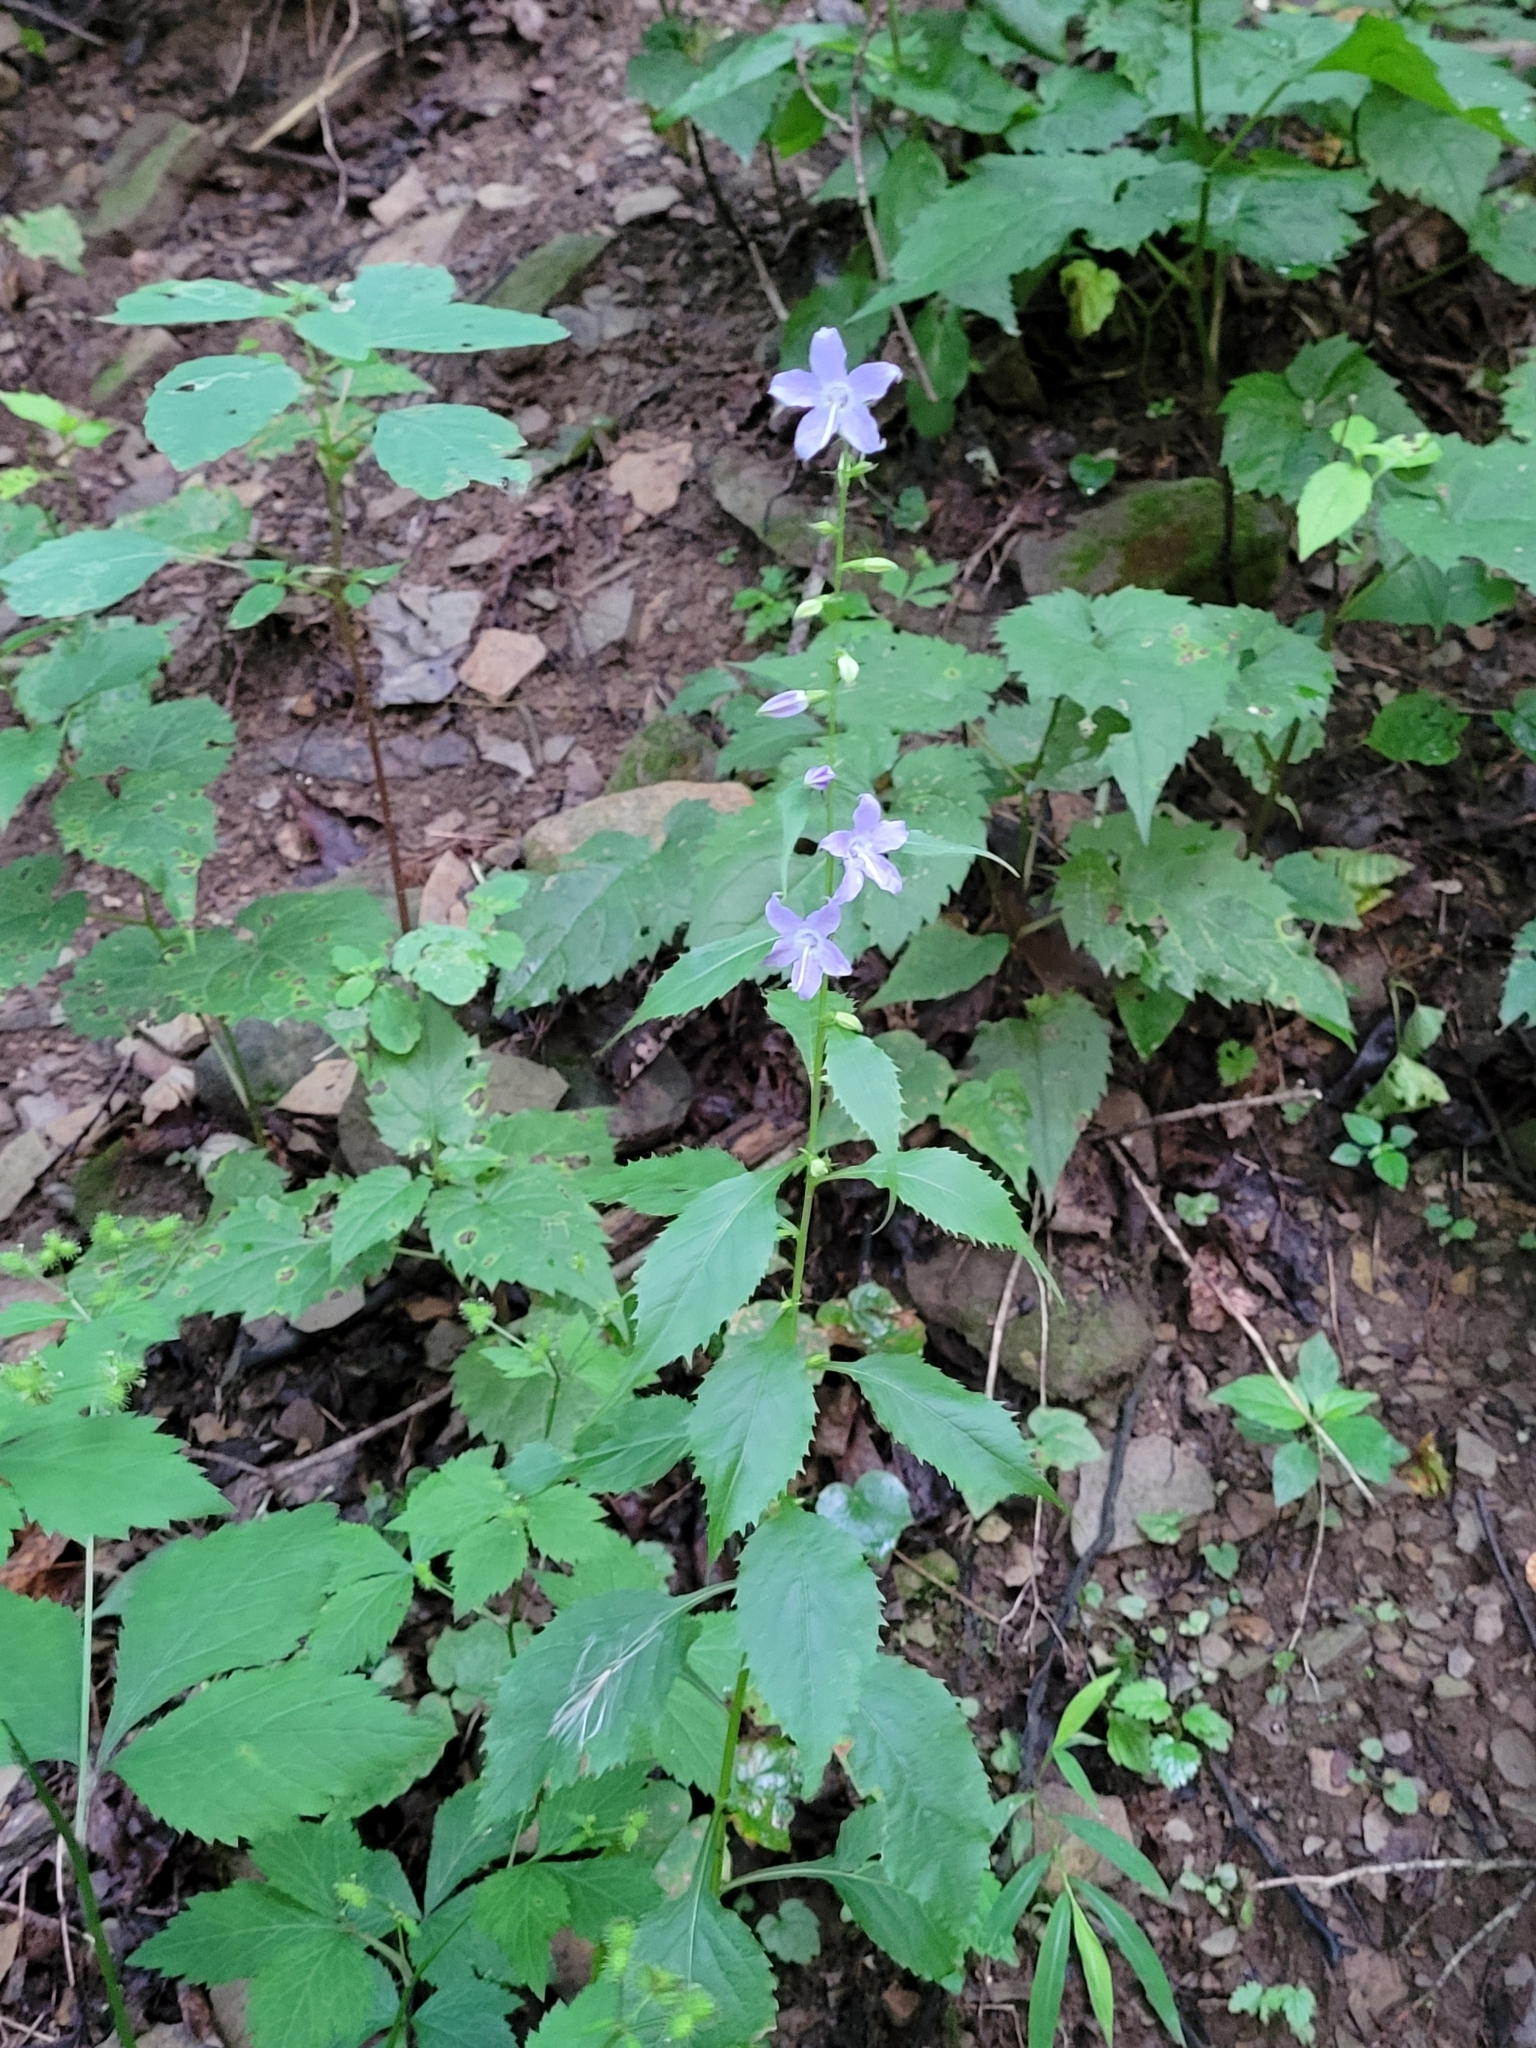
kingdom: Plantae
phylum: Tracheophyta
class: Magnoliopsida
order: Asterales
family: Campanulaceae
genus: Campanulastrum
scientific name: Campanulastrum americanum
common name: American bellflower
